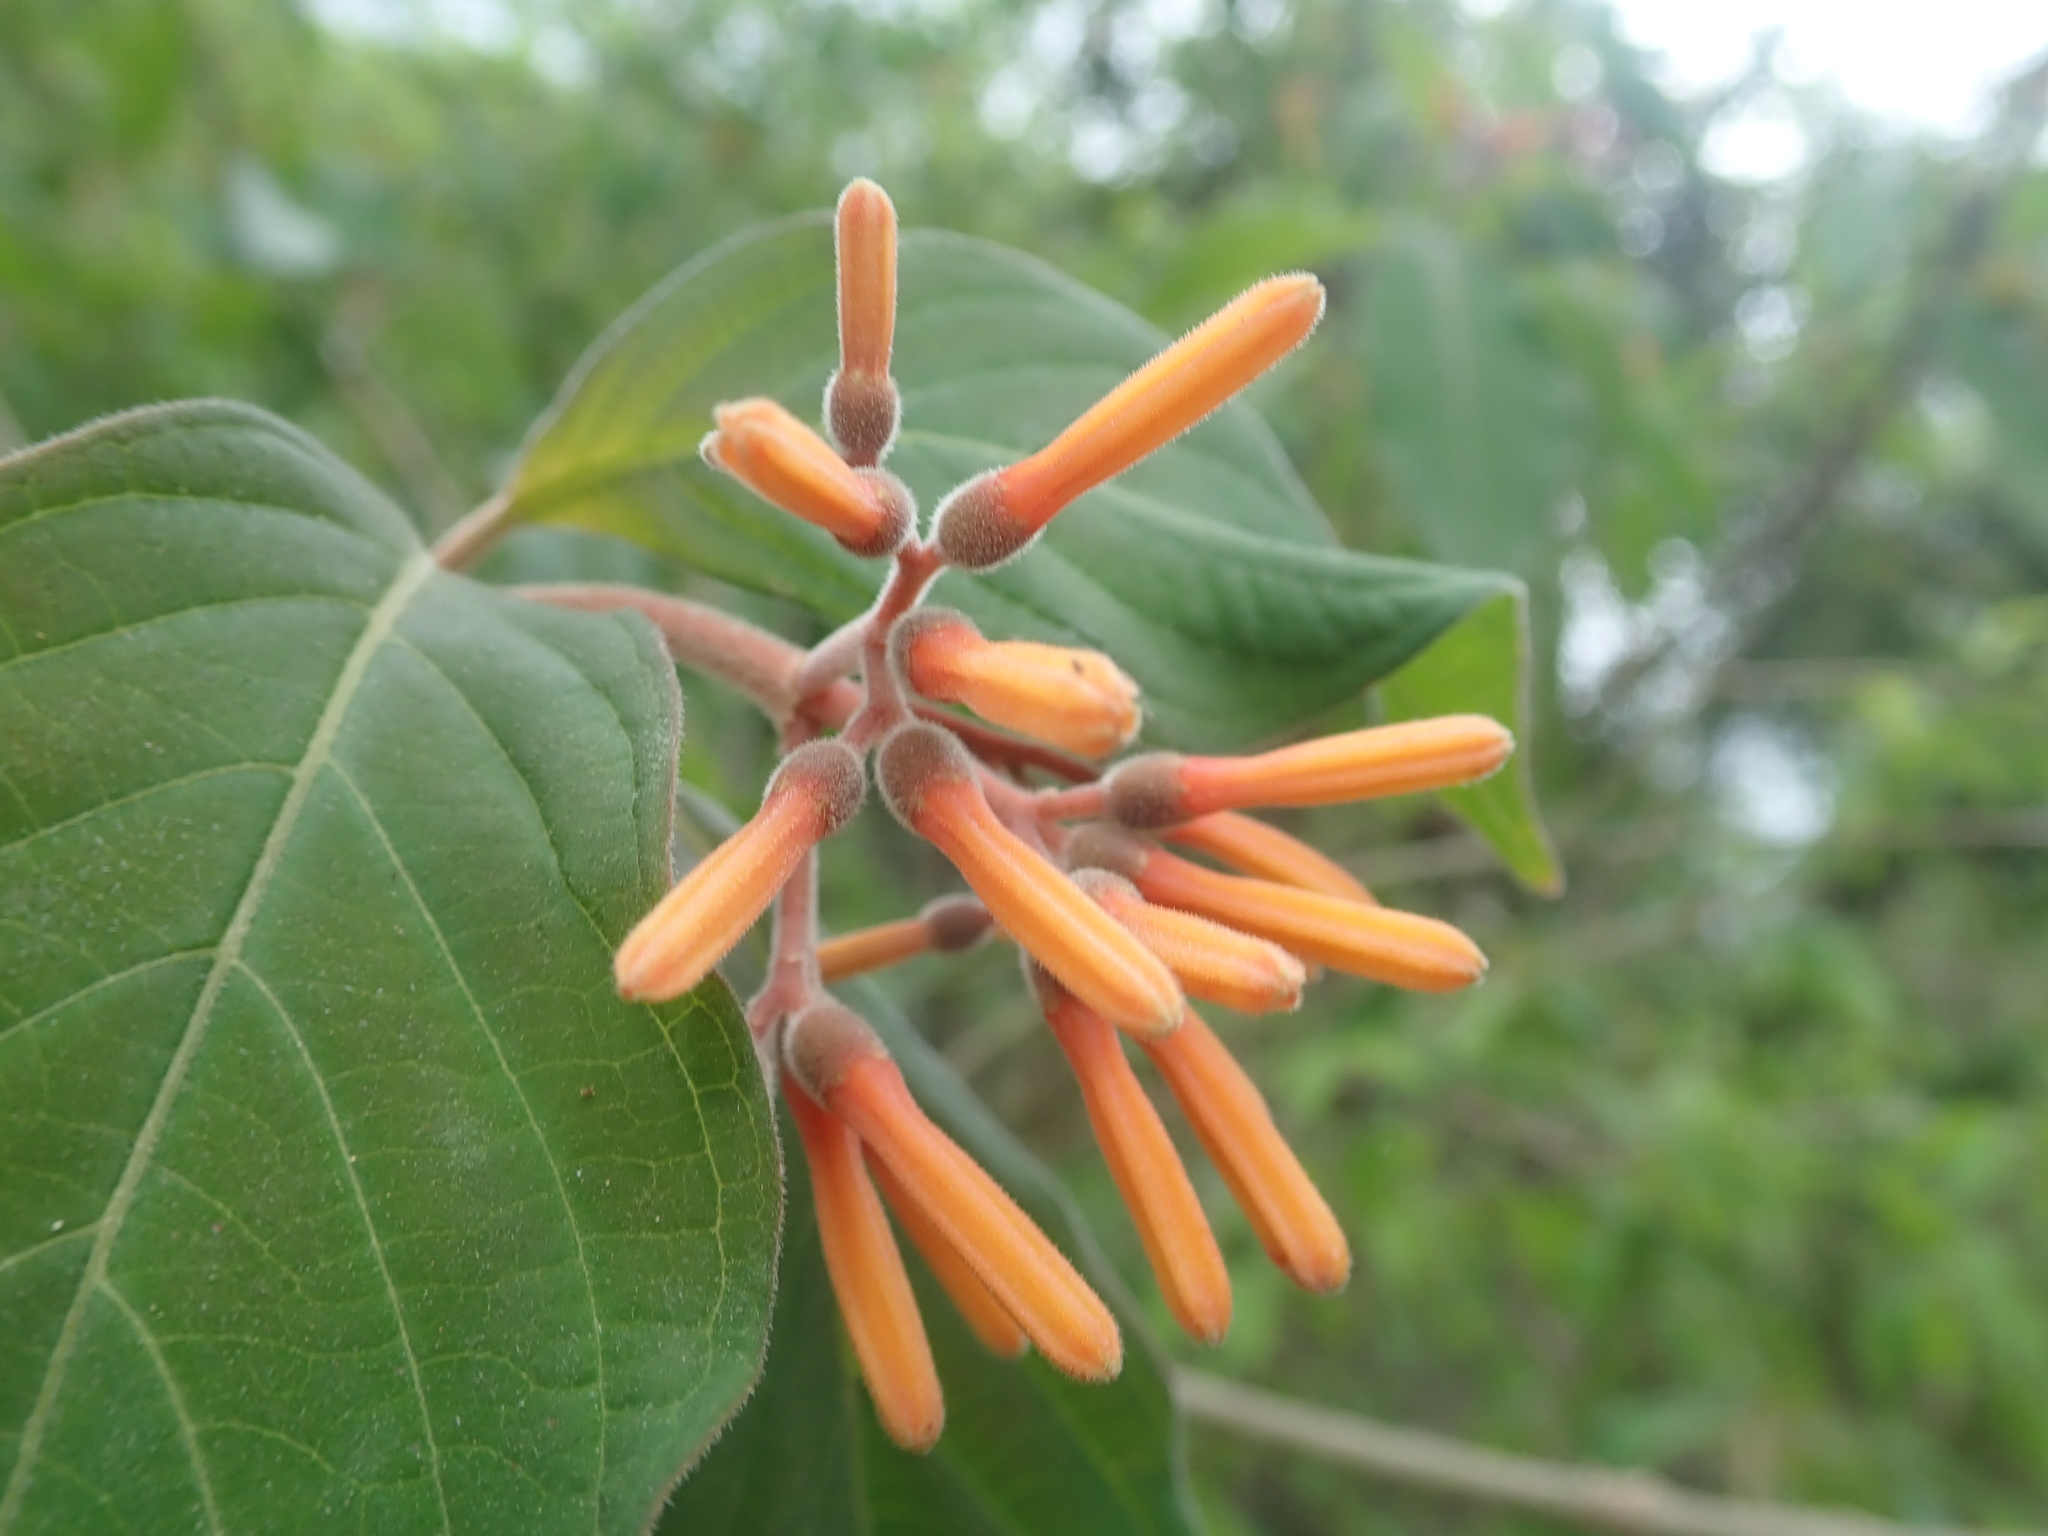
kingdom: Plantae
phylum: Tracheophyta
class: Magnoliopsida
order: Gentianales
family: Rubiaceae
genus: Hamelia
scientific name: Hamelia patens
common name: Redhead
